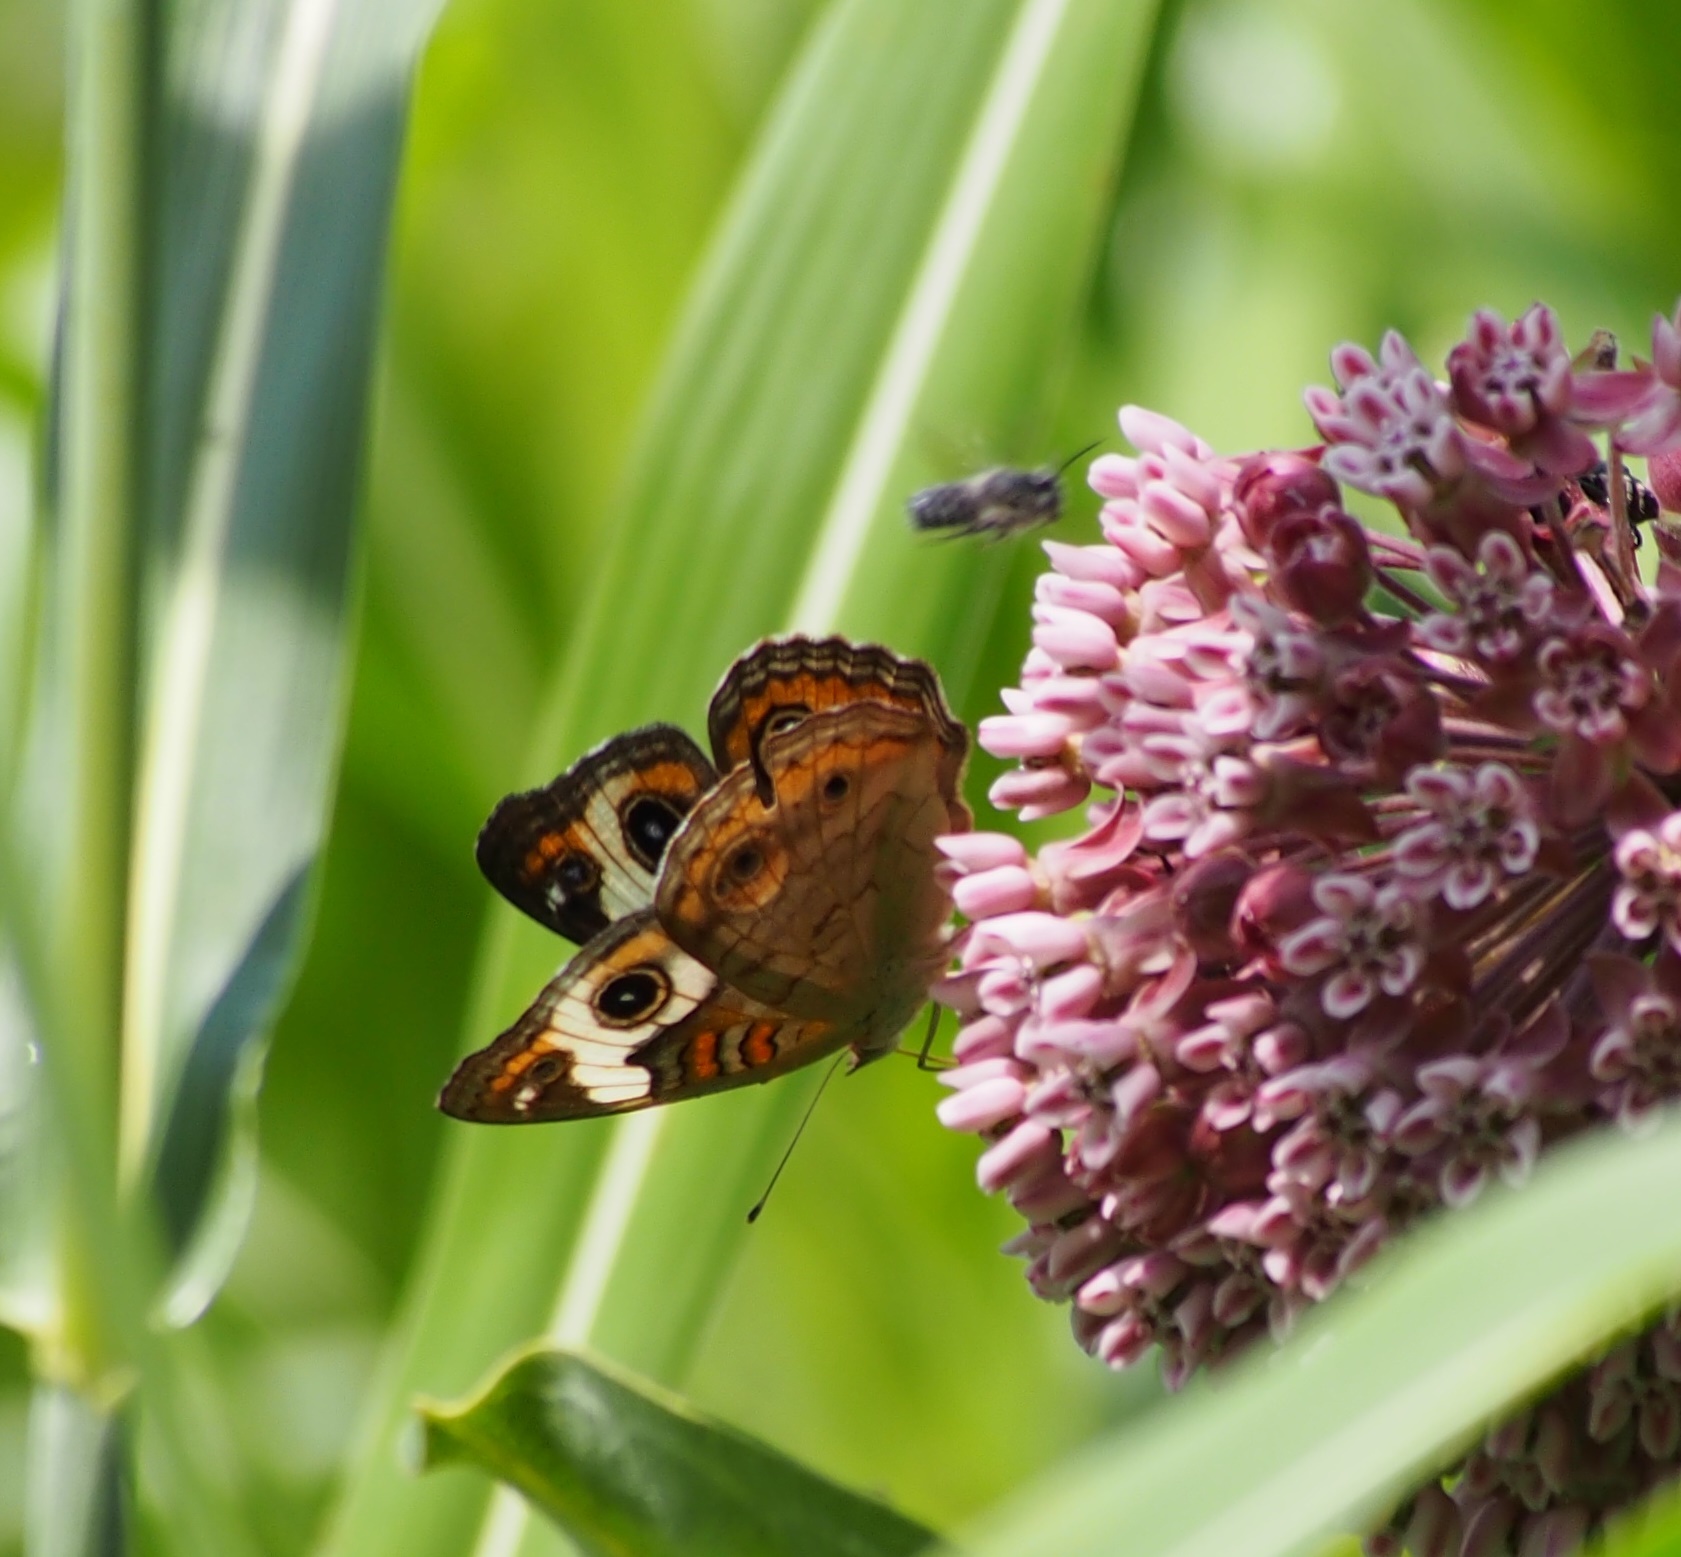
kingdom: Animalia
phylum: Arthropoda
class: Insecta
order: Lepidoptera
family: Nymphalidae
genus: Junonia
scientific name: Junonia coenia
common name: Common buckeye
